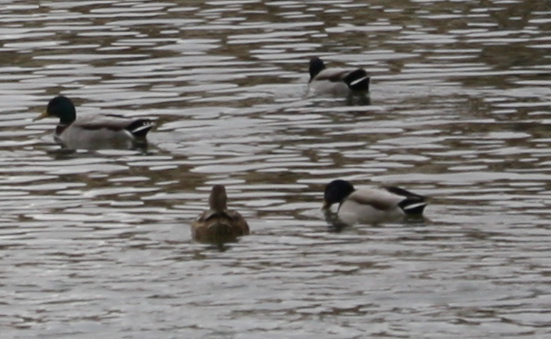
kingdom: Animalia
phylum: Chordata
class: Aves
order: Anseriformes
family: Anatidae
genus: Anas
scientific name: Anas platyrhynchos
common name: Mallard
